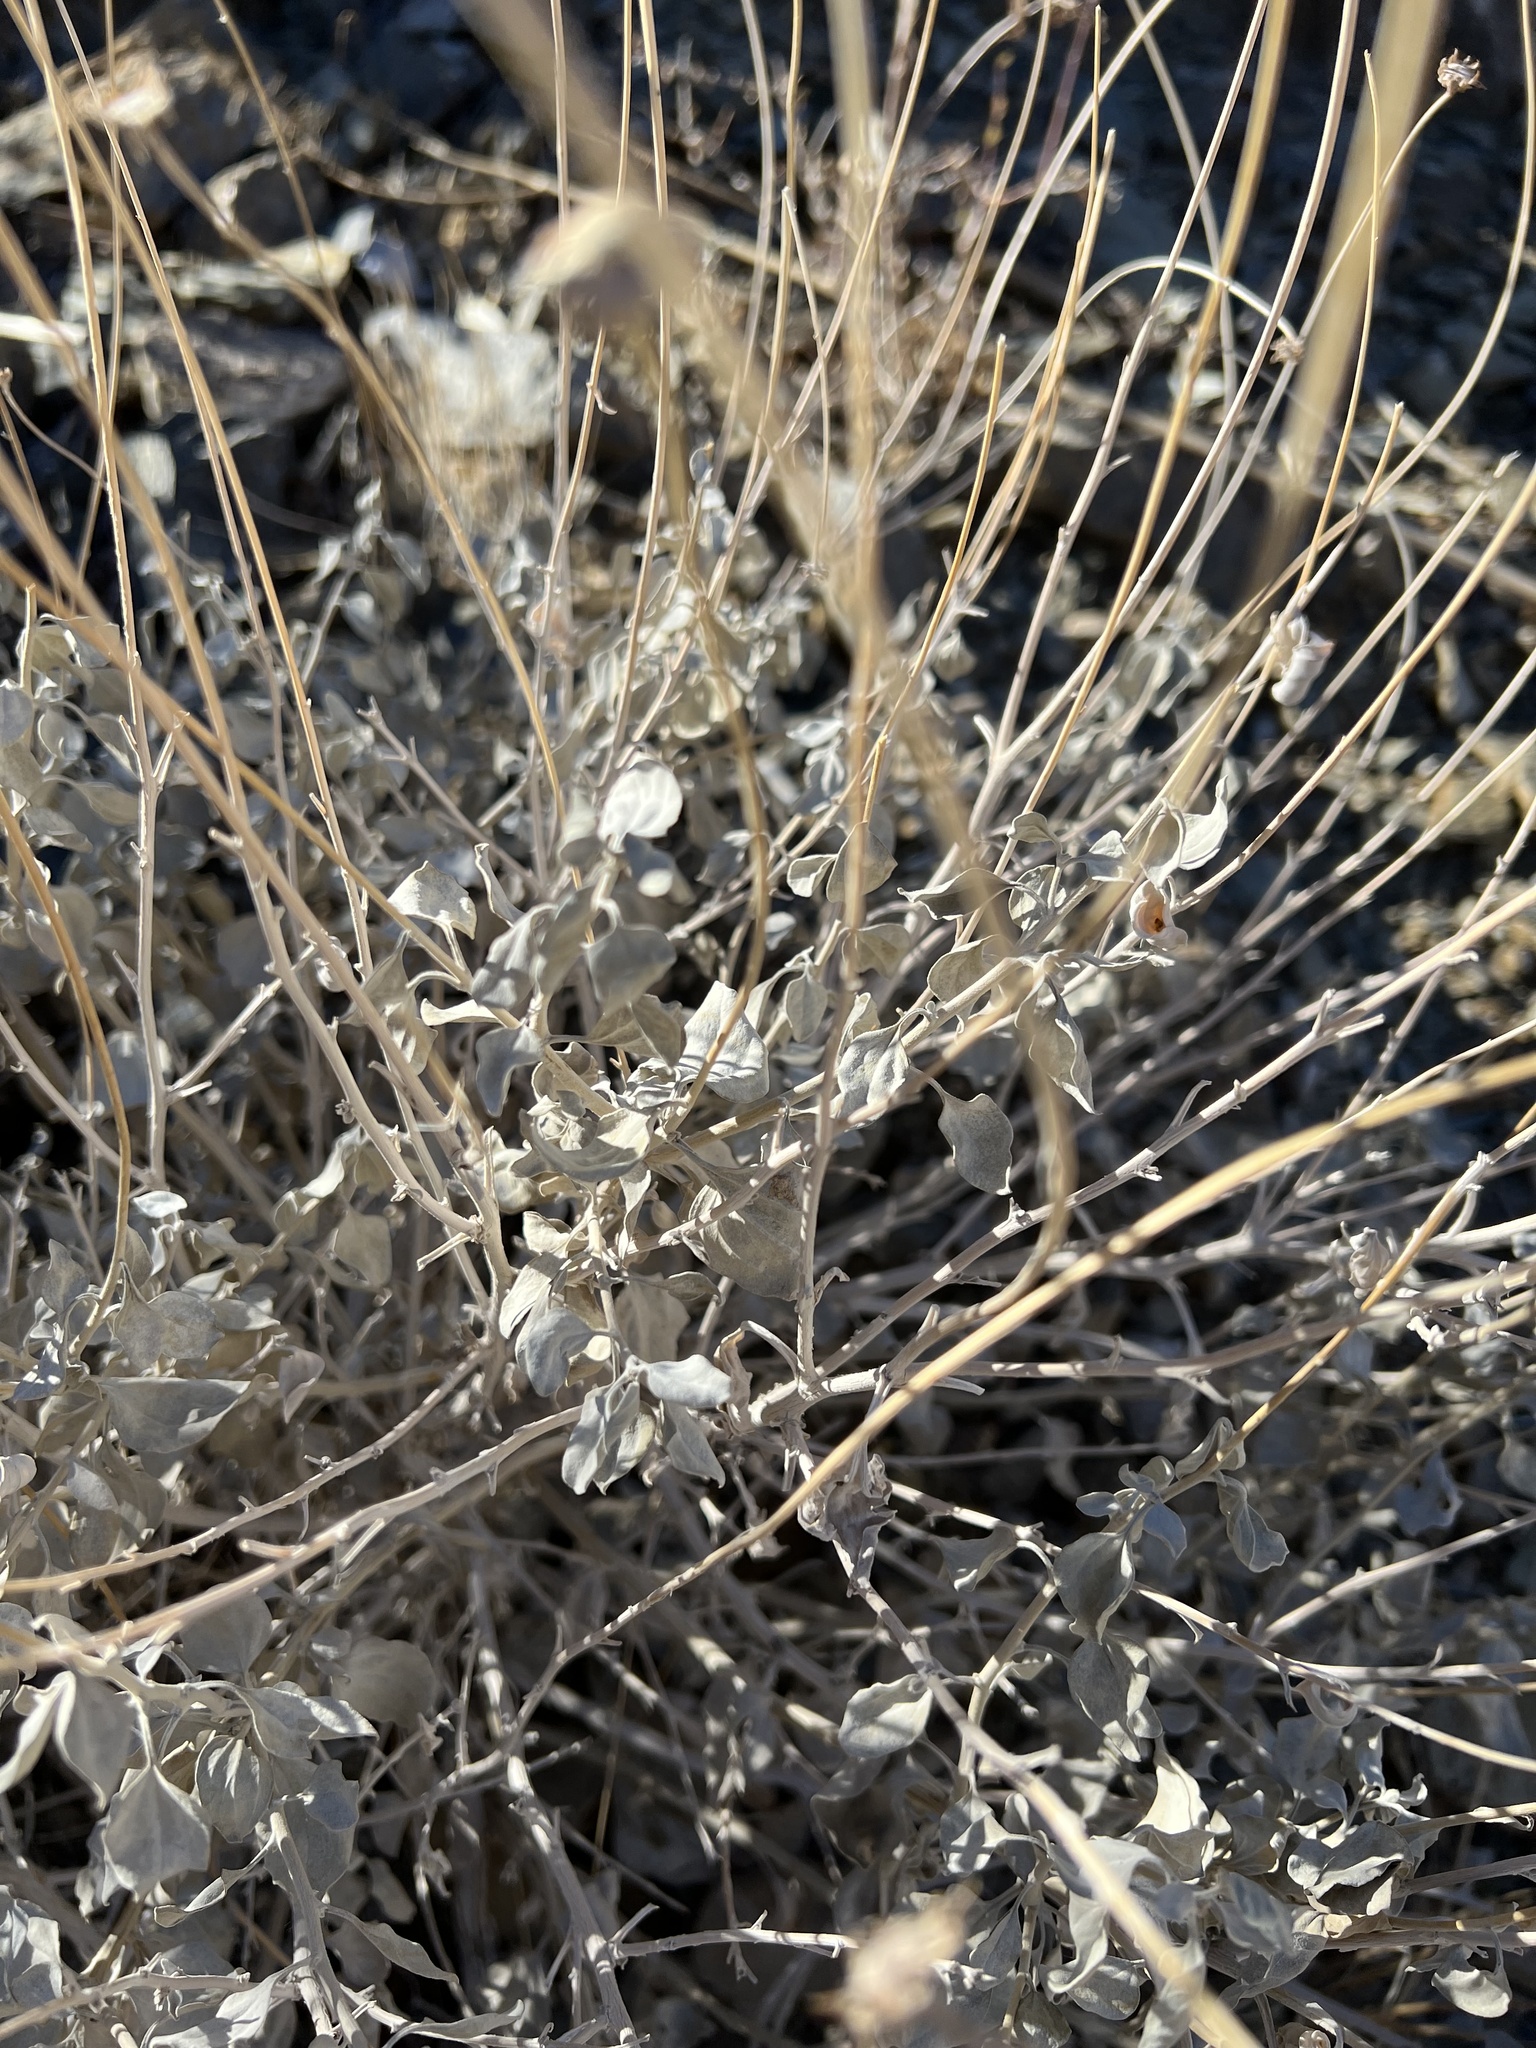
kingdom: Plantae
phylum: Tracheophyta
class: Magnoliopsida
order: Asterales
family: Asteraceae
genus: Encelia
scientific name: Encelia actoni
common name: Acton encelia
